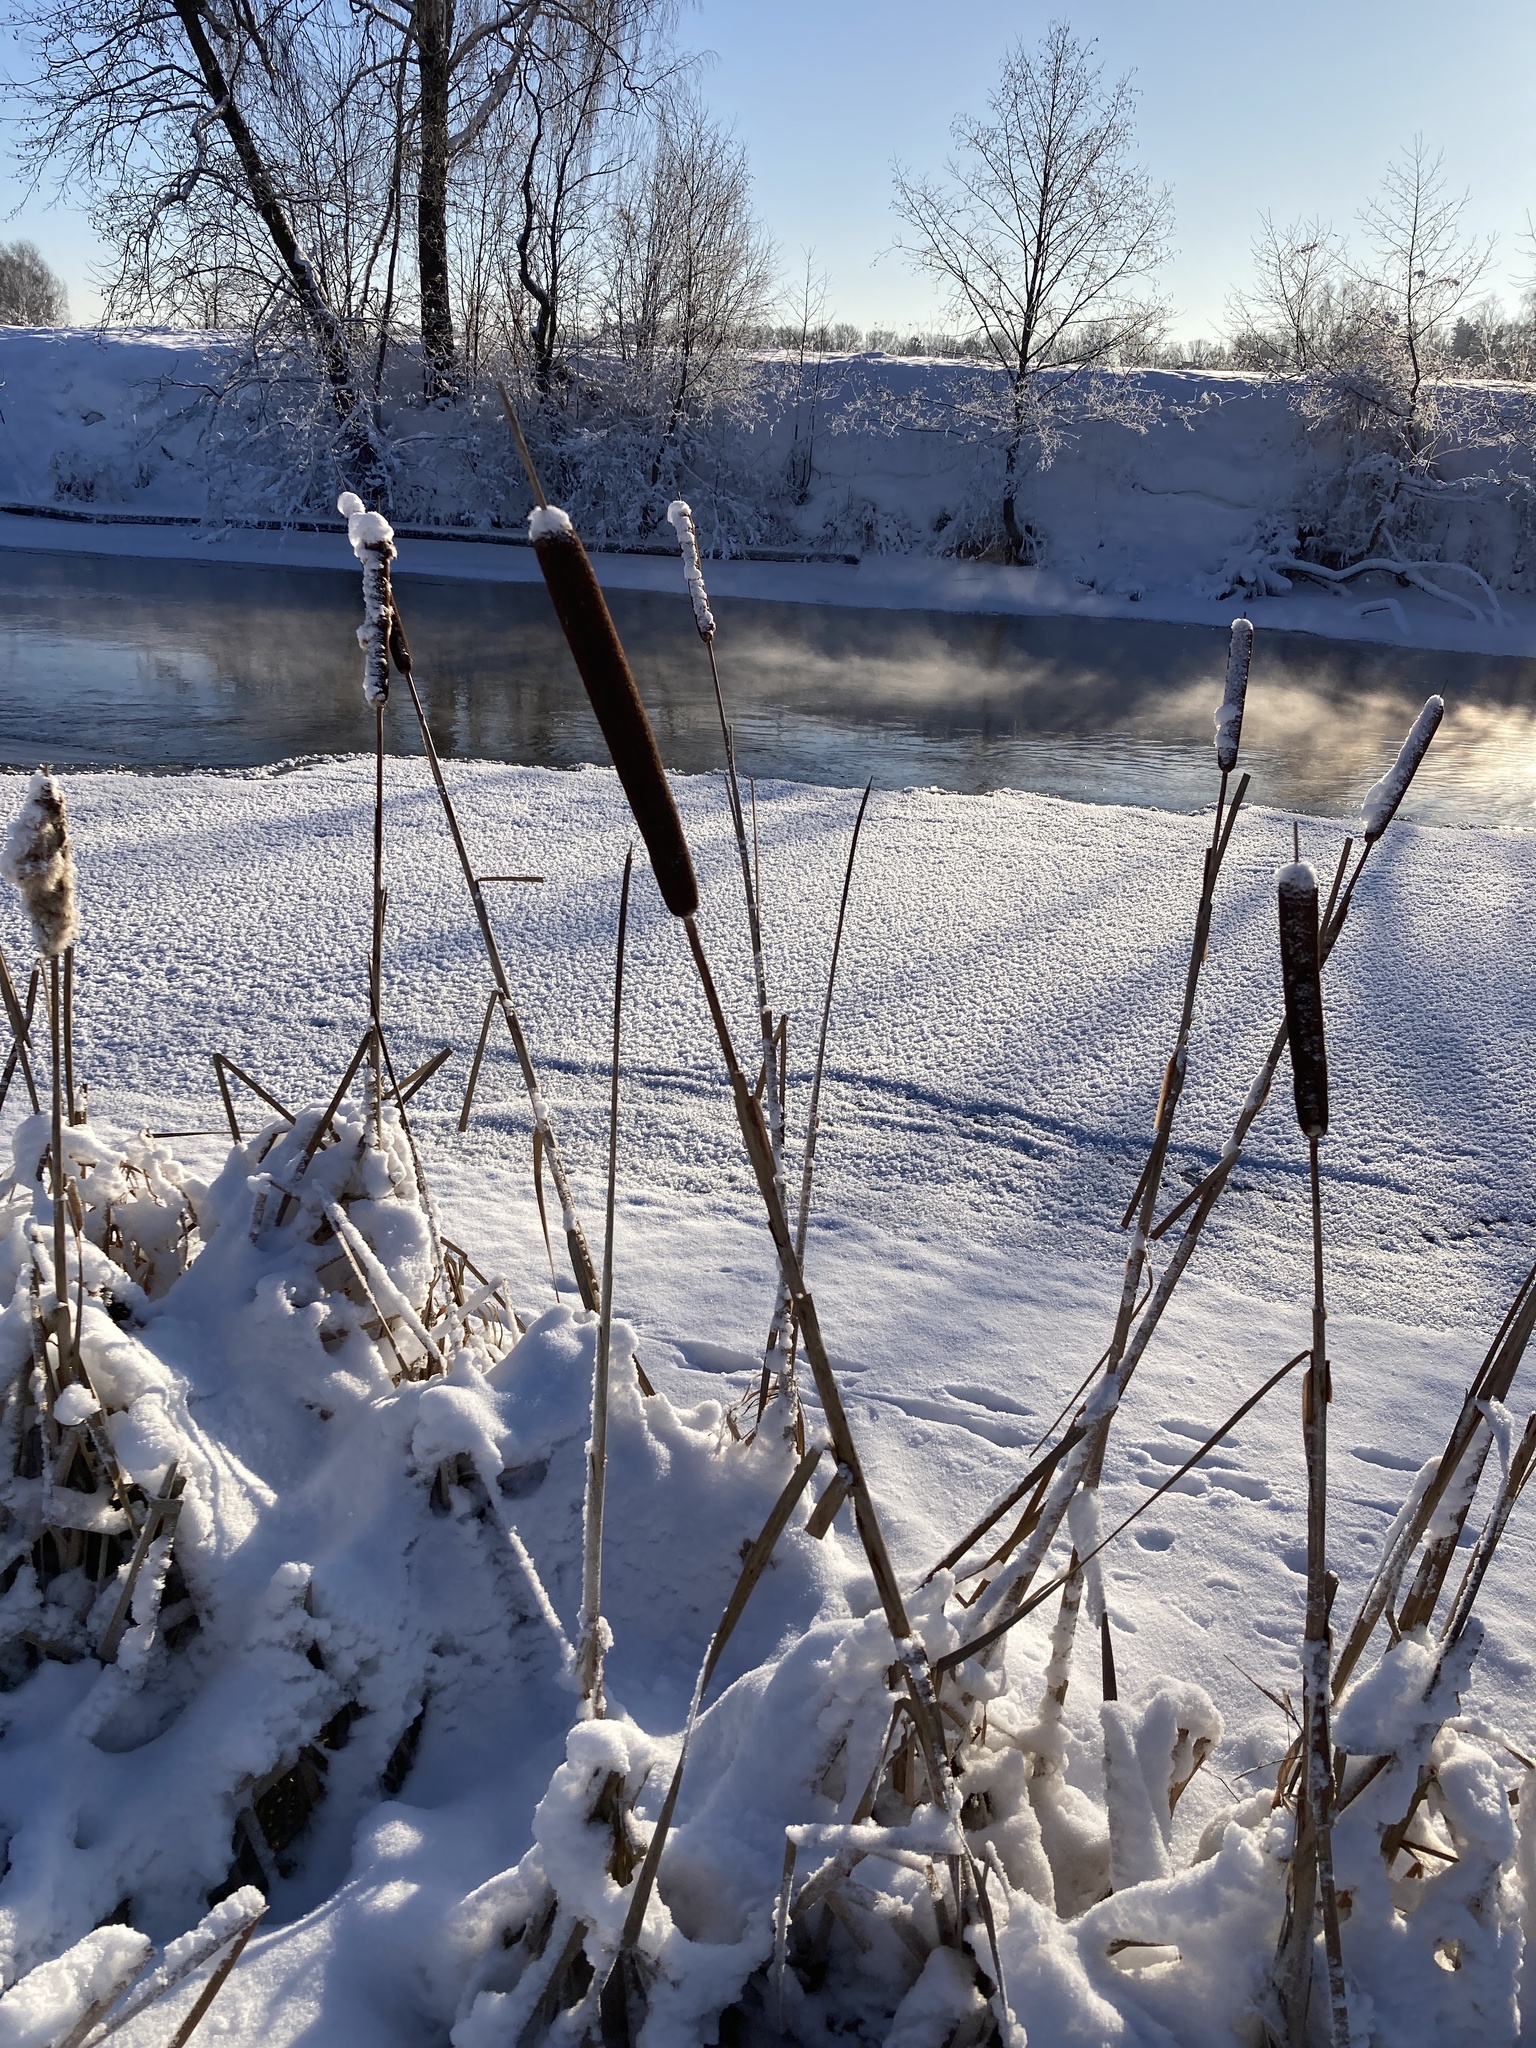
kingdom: Plantae
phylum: Tracheophyta
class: Liliopsida
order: Poales
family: Typhaceae
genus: Typha
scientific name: Typha latifolia
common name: Broadleaf cattail
